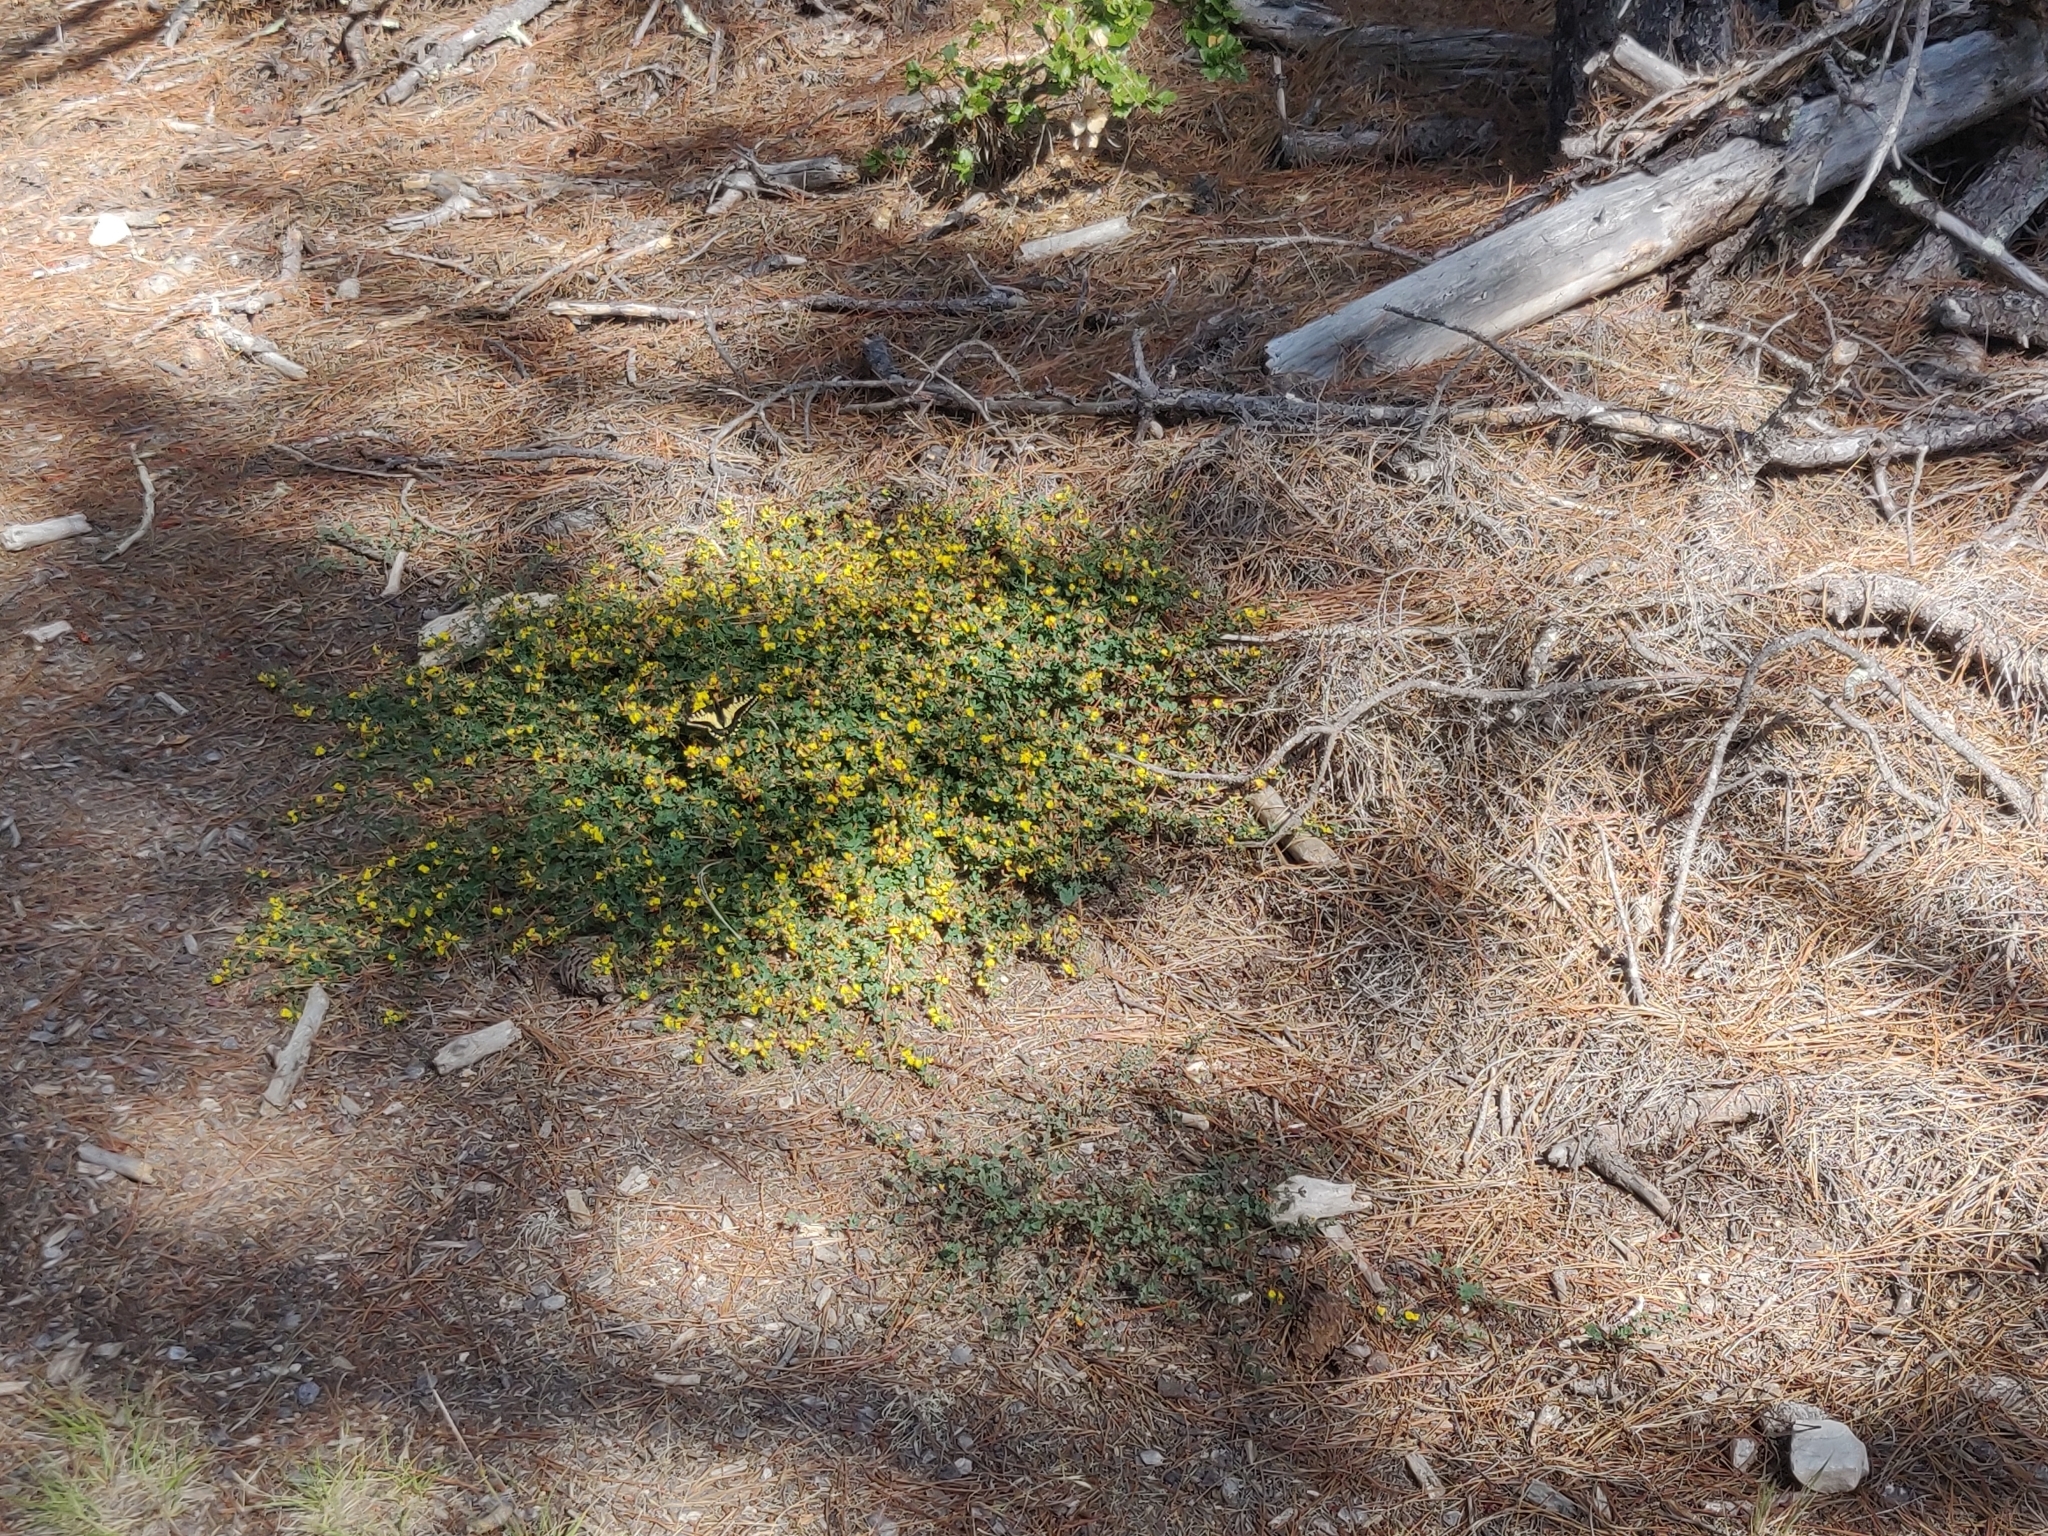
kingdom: Plantae
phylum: Tracheophyta
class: Magnoliopsida
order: Fabales
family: Fabaceae
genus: Acmispon
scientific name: Acmispon junceus
